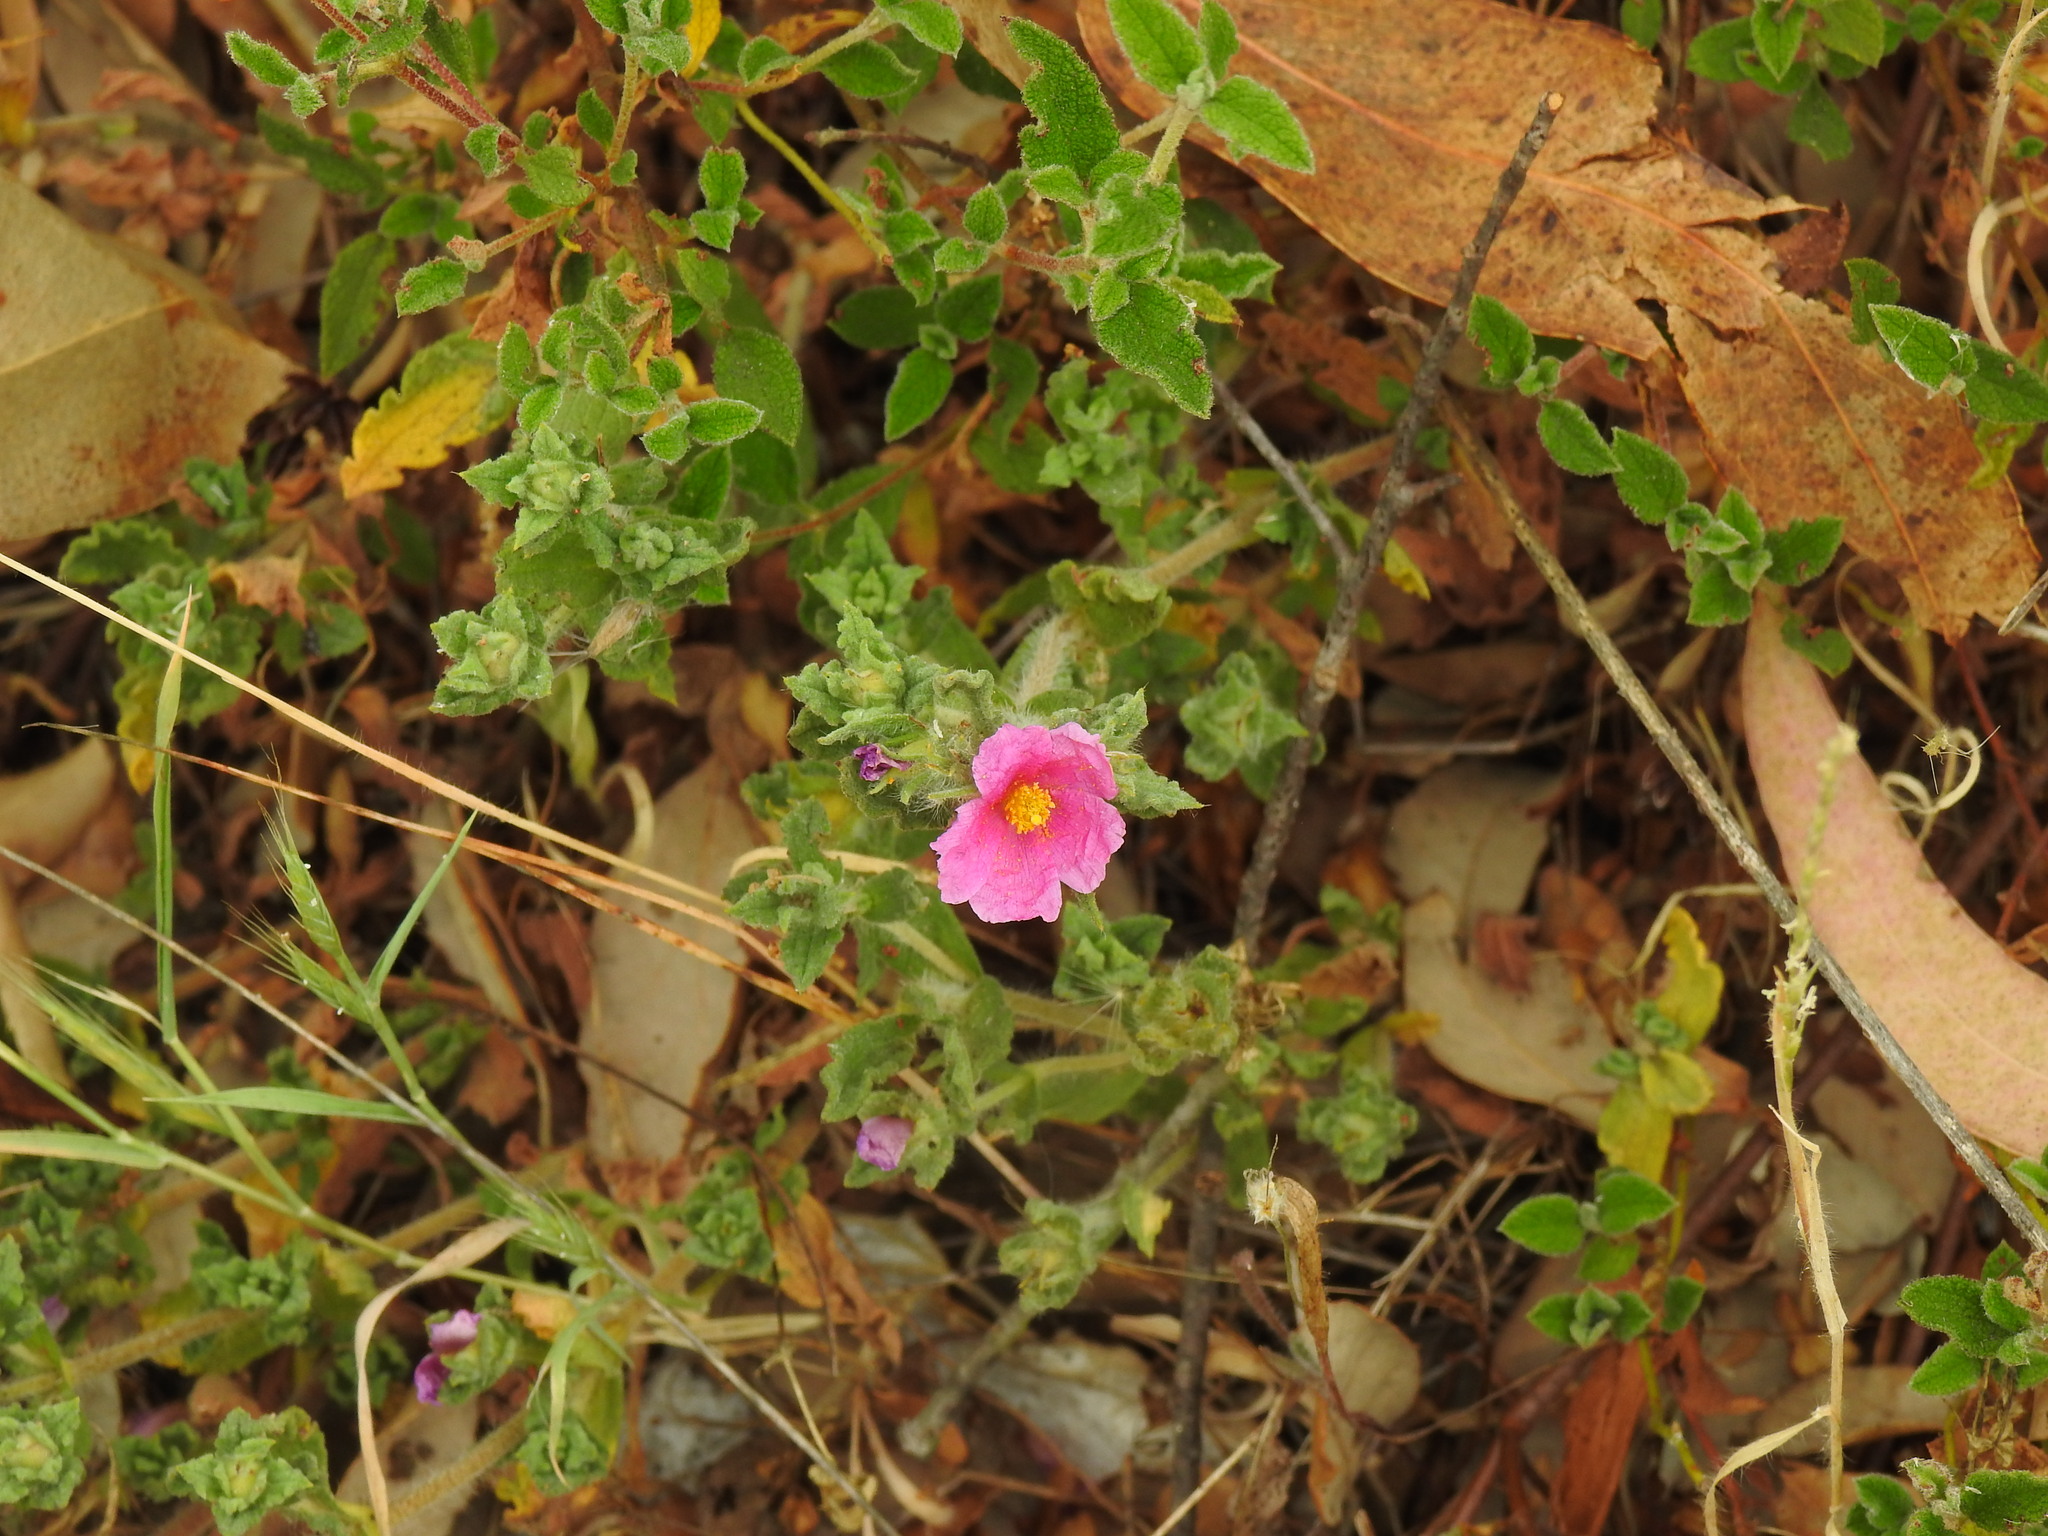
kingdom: Plantae
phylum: Tracheophyta
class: Magnoliopsida
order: Malvales
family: Cistaceae
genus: Cistus
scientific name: Cistus crispus
